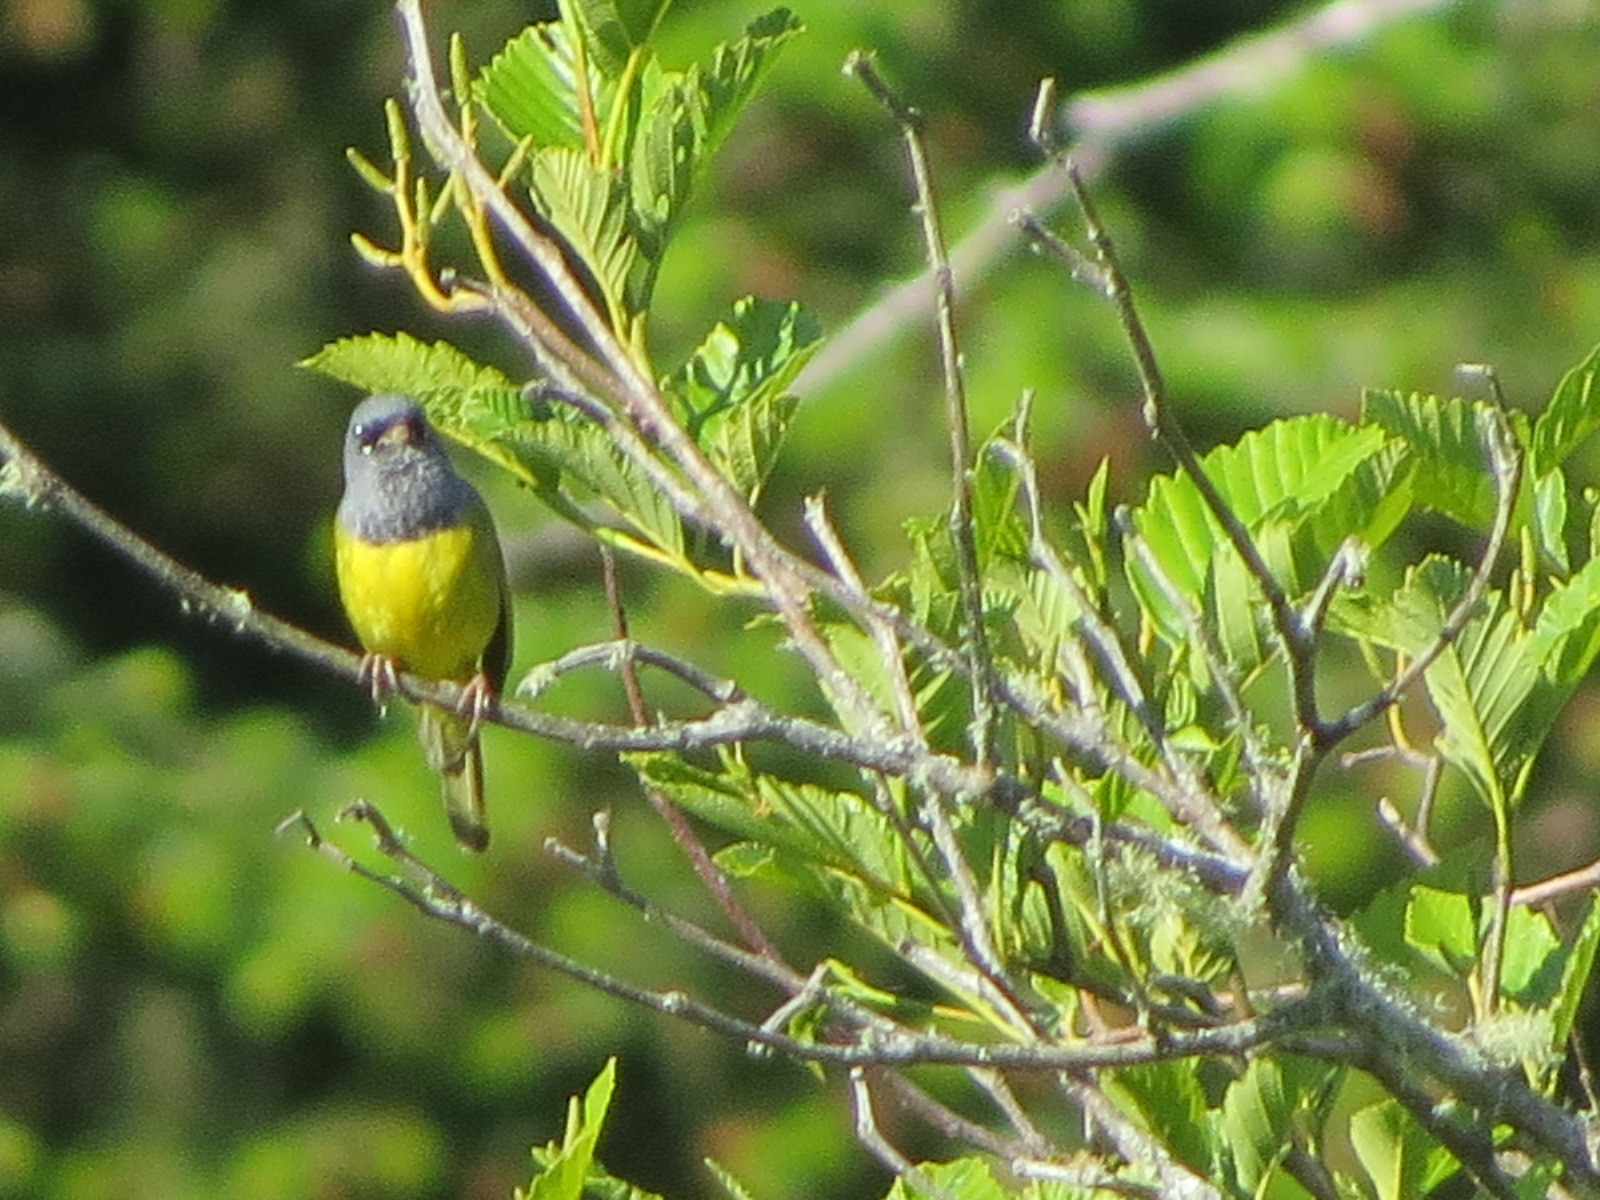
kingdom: Animalia
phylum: Chordata
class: Aves
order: Passeriformes
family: Parulidae
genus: Geothlypis
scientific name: Geothlypis tolmiei
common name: Macgillivray's warbler
